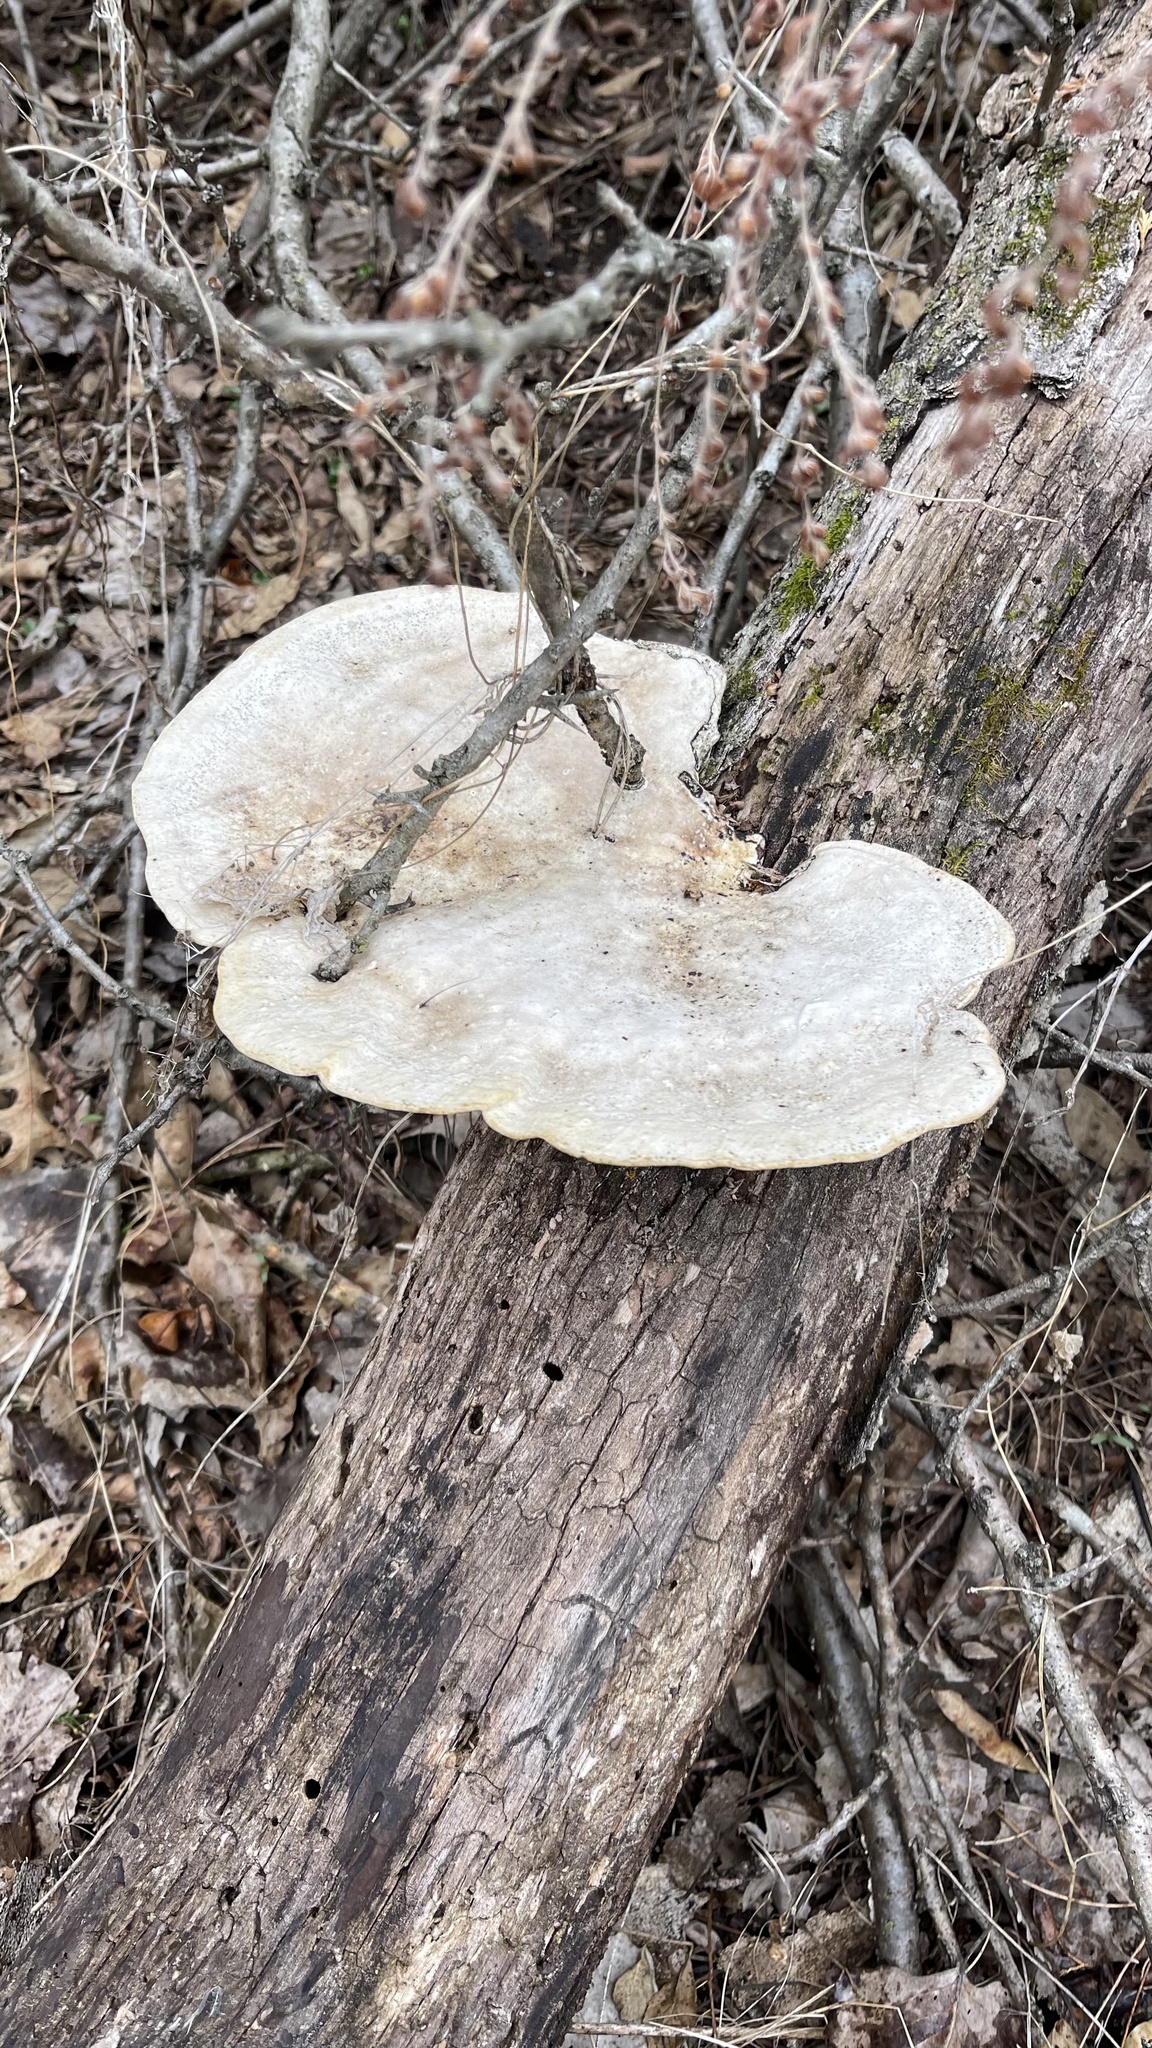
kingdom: Fungi
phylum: Basidiomycota
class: Agaricomycetes
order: Polyporales
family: Polyporaceae
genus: Trametes
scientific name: Trametes
